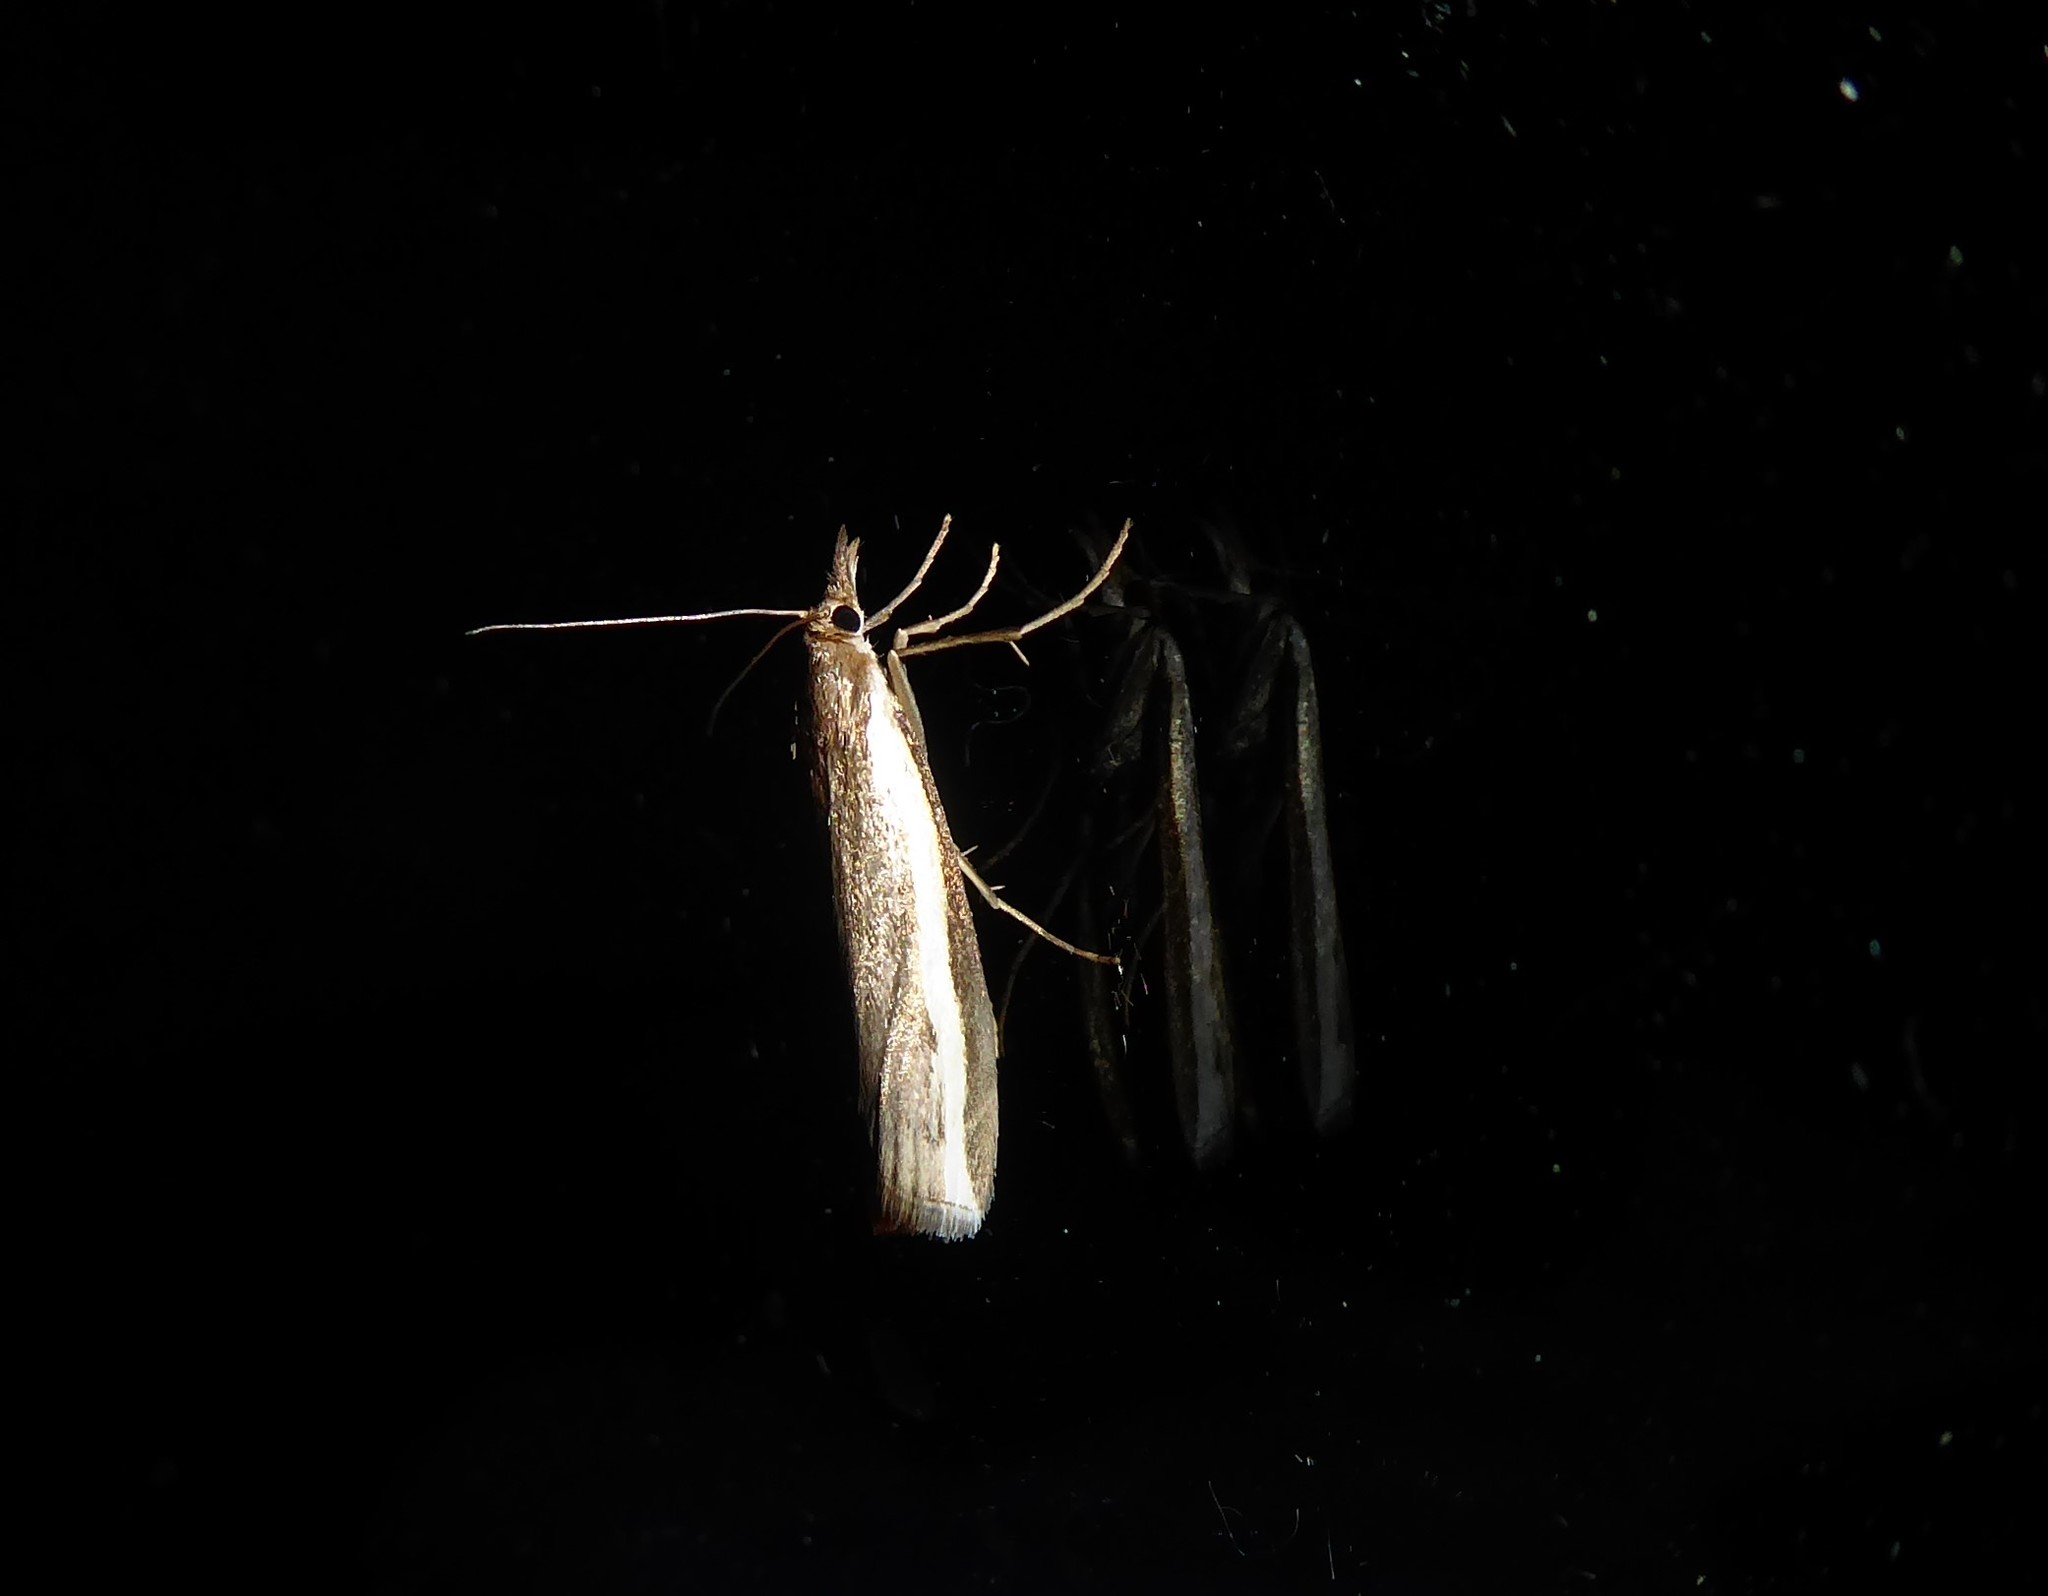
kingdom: Animalia
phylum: Arthropoda
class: Insecta
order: Lepidoptera
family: Crambidae
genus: Orocrambus
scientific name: Orocrambus flexuosellus
